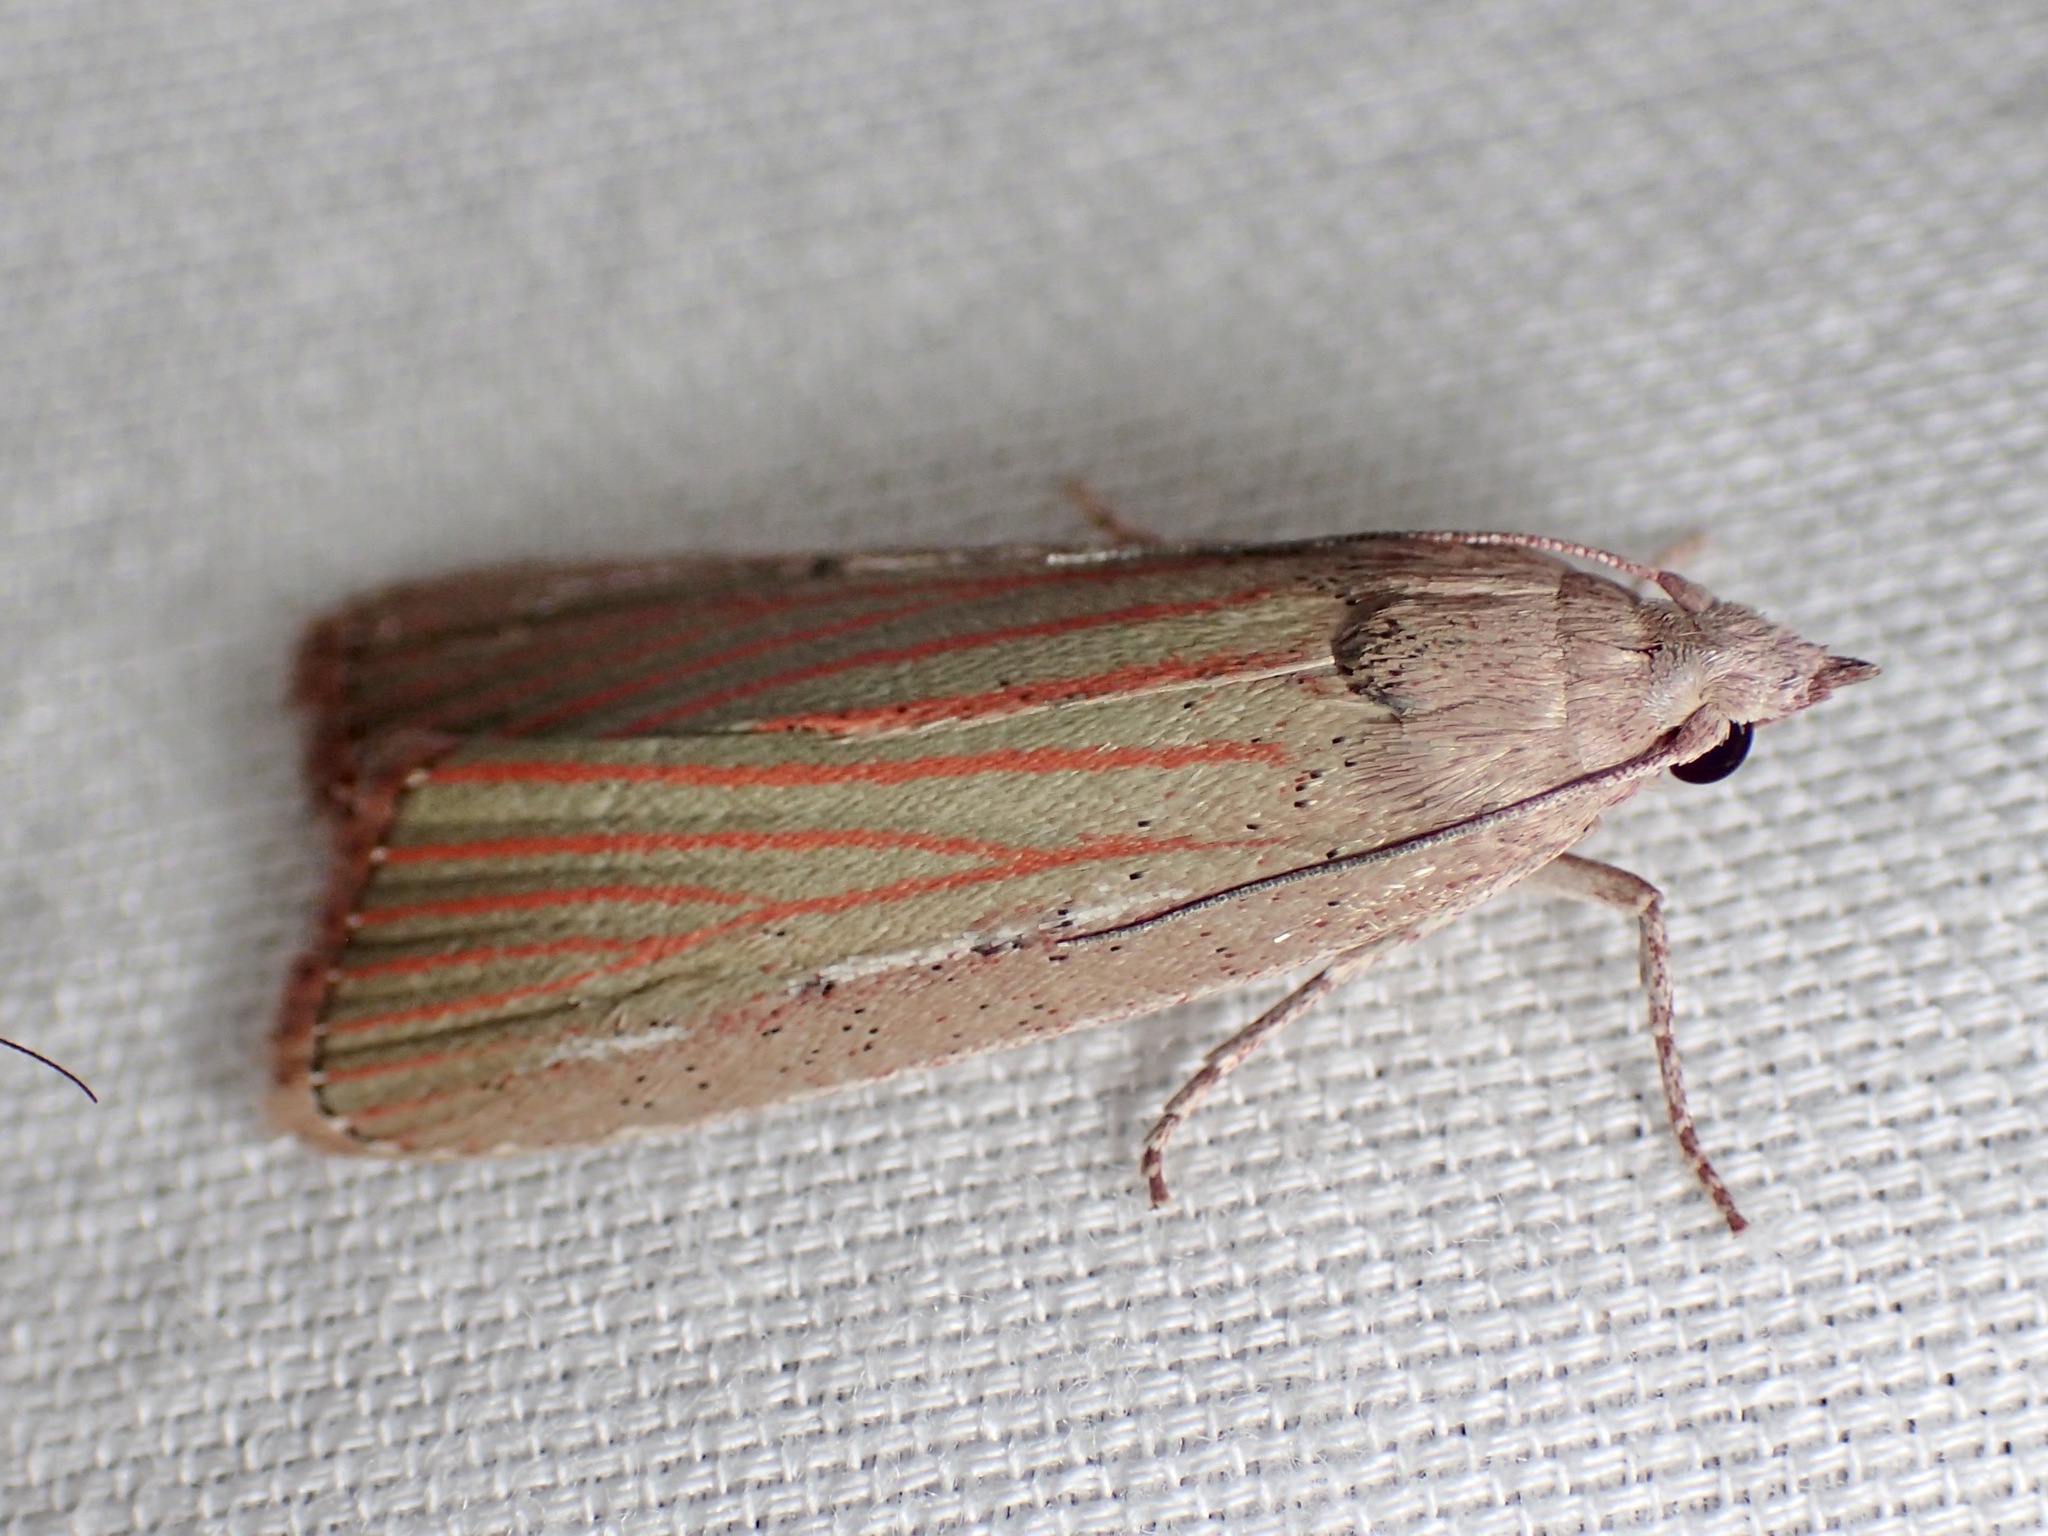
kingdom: Animalia
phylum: Arthropoda
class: Insecta
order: Lepidoptera
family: Pyralidae
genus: Tirathaba
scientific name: Tirathaba rufivena
